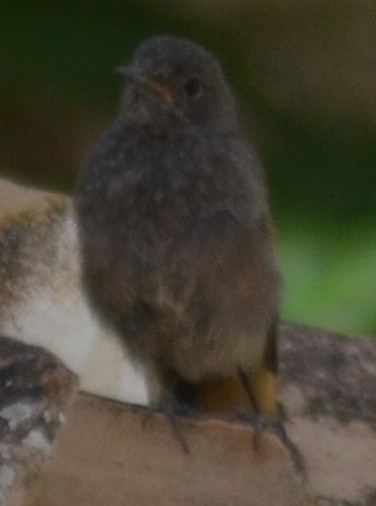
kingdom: Animalia
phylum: Chordata
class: Aves
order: Passeriformes
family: Muscicapidae
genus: Phoenicurus
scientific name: Phoenicurus ochruros
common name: Black redstart
